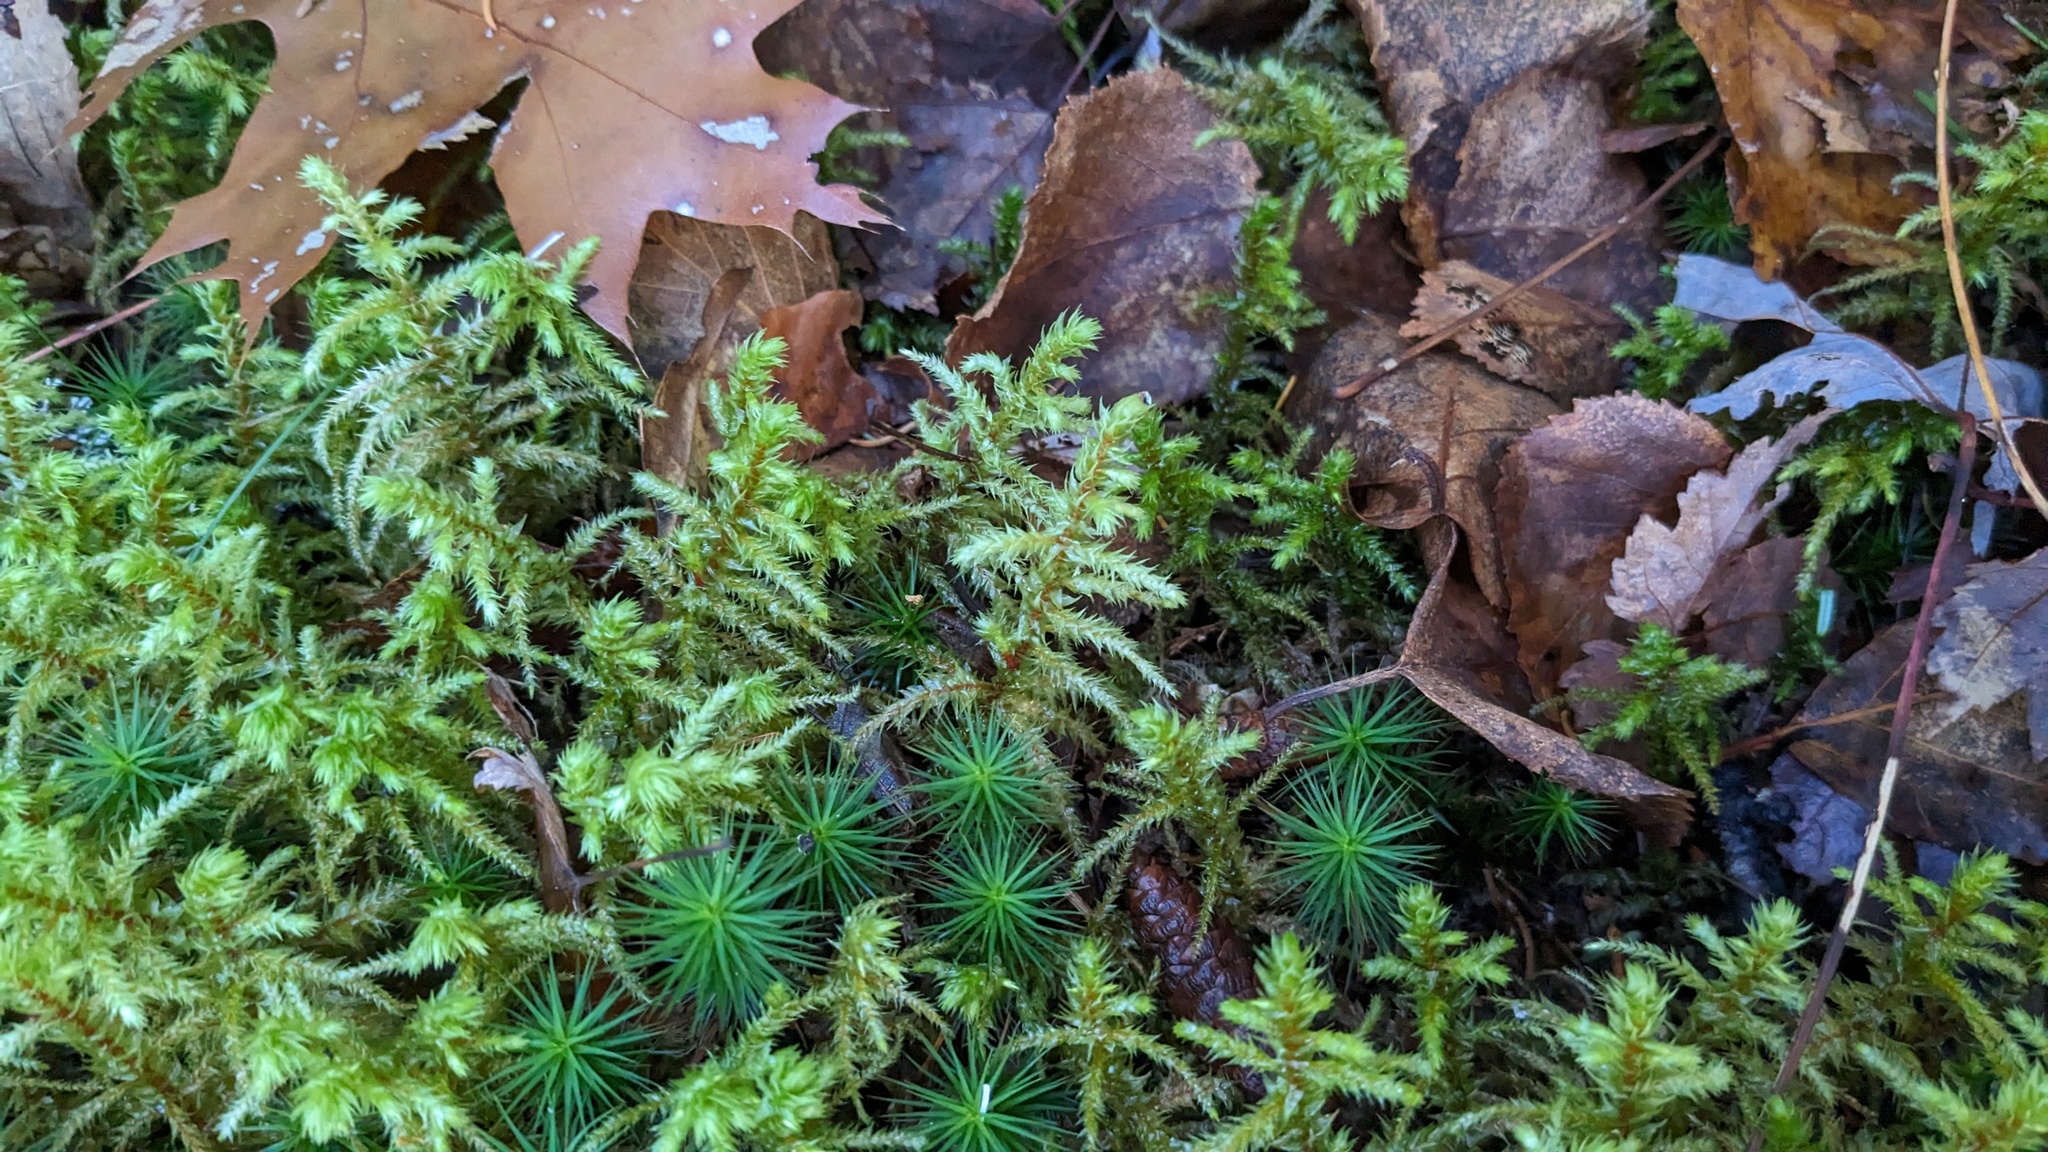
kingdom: Plantae
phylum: Bryophyta
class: Bryopsida
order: Hypnales
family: Hylocomiaceae
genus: Hylocomiadelphus
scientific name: Hylocomiadelphus triquetrus
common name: Rough goose neck moss
